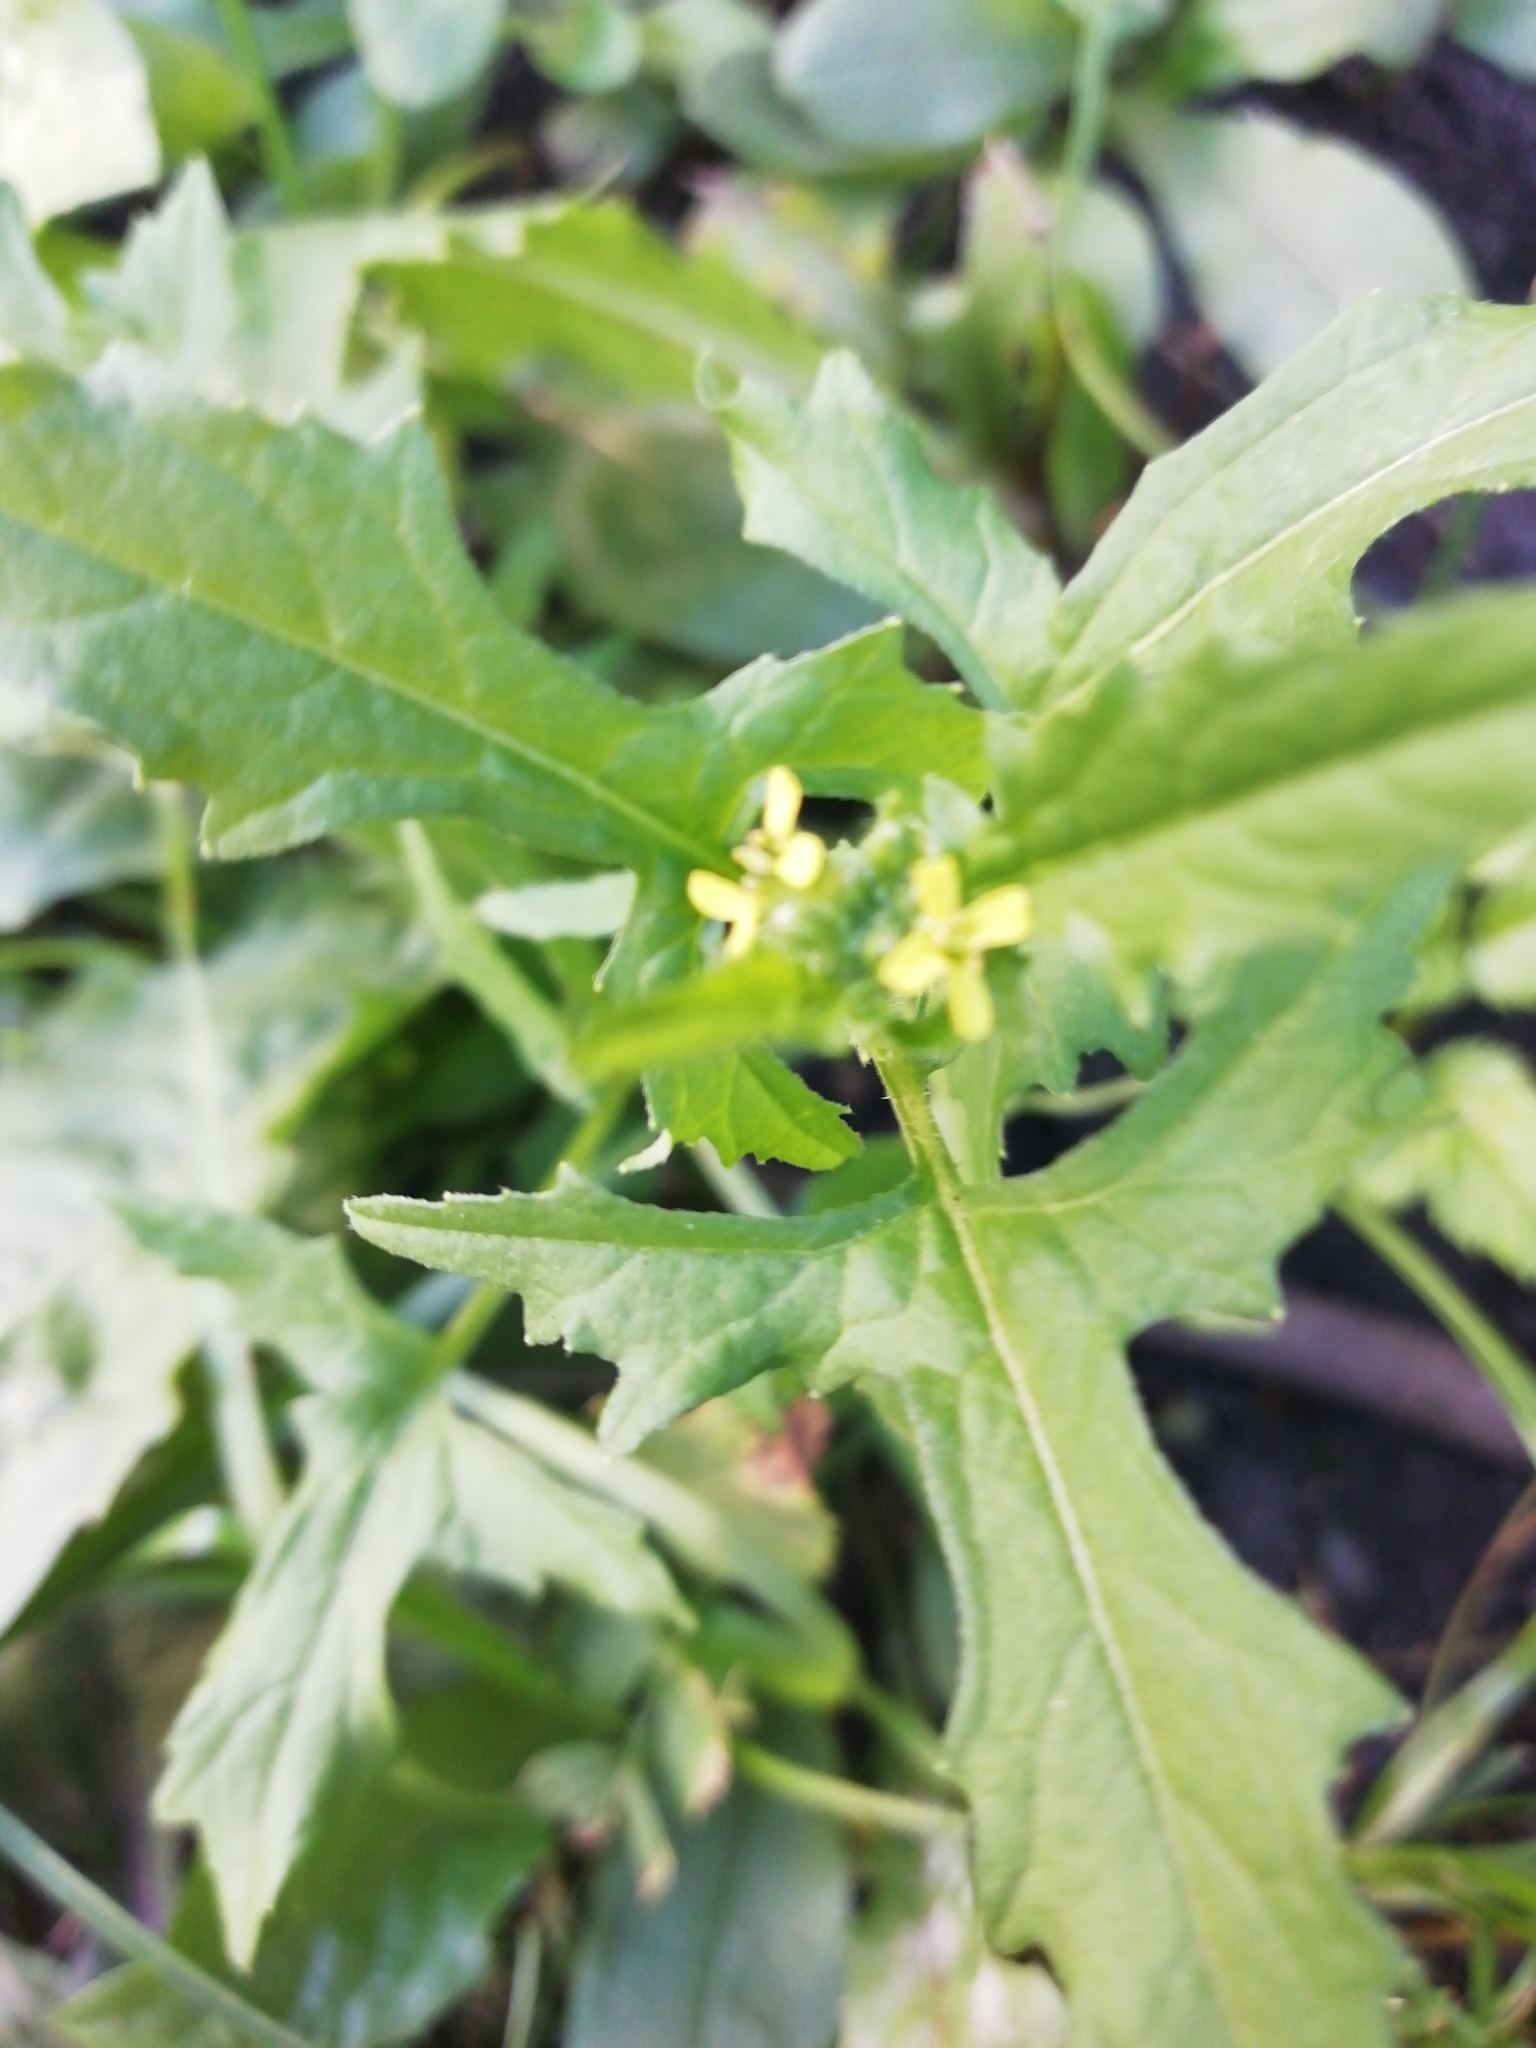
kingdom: Plantae
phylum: Tracheophyta
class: Magnoliopsida
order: Brassicales
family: Brassicaceae
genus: Sisymbrium
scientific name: Sisymbrium officinale
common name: Hedge mustard
